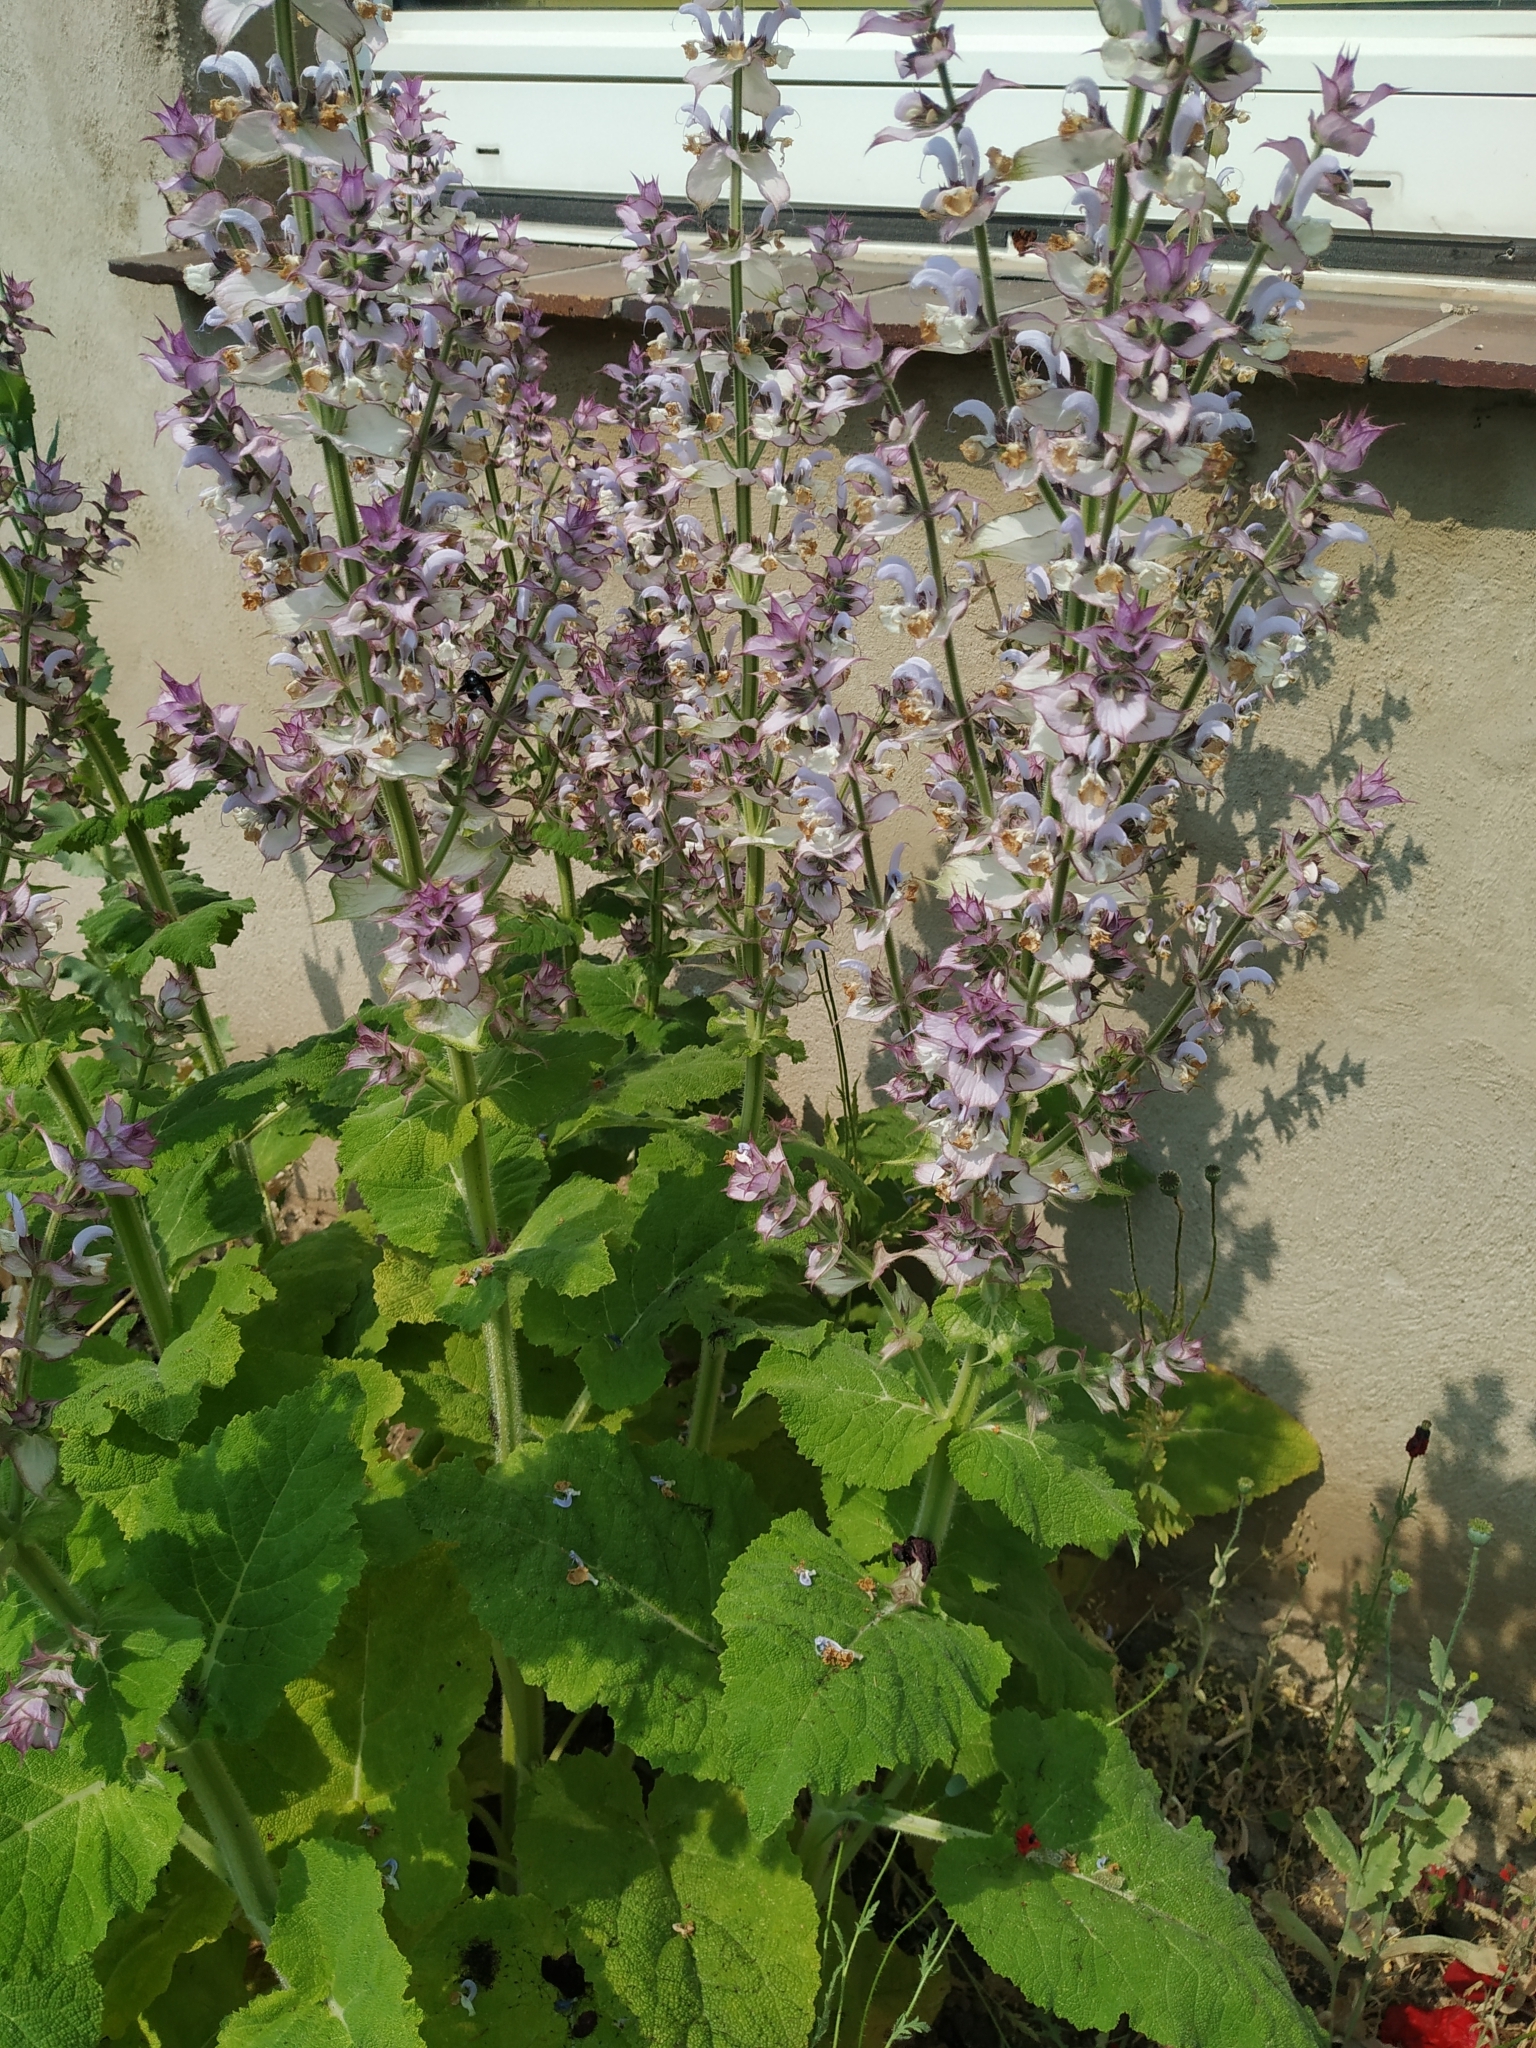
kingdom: Plantae
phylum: Tracheophyta
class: Magnoliopsida
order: Lamiales
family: Lamiaceae
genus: Salvia
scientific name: Salvia sclarea
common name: Clary
